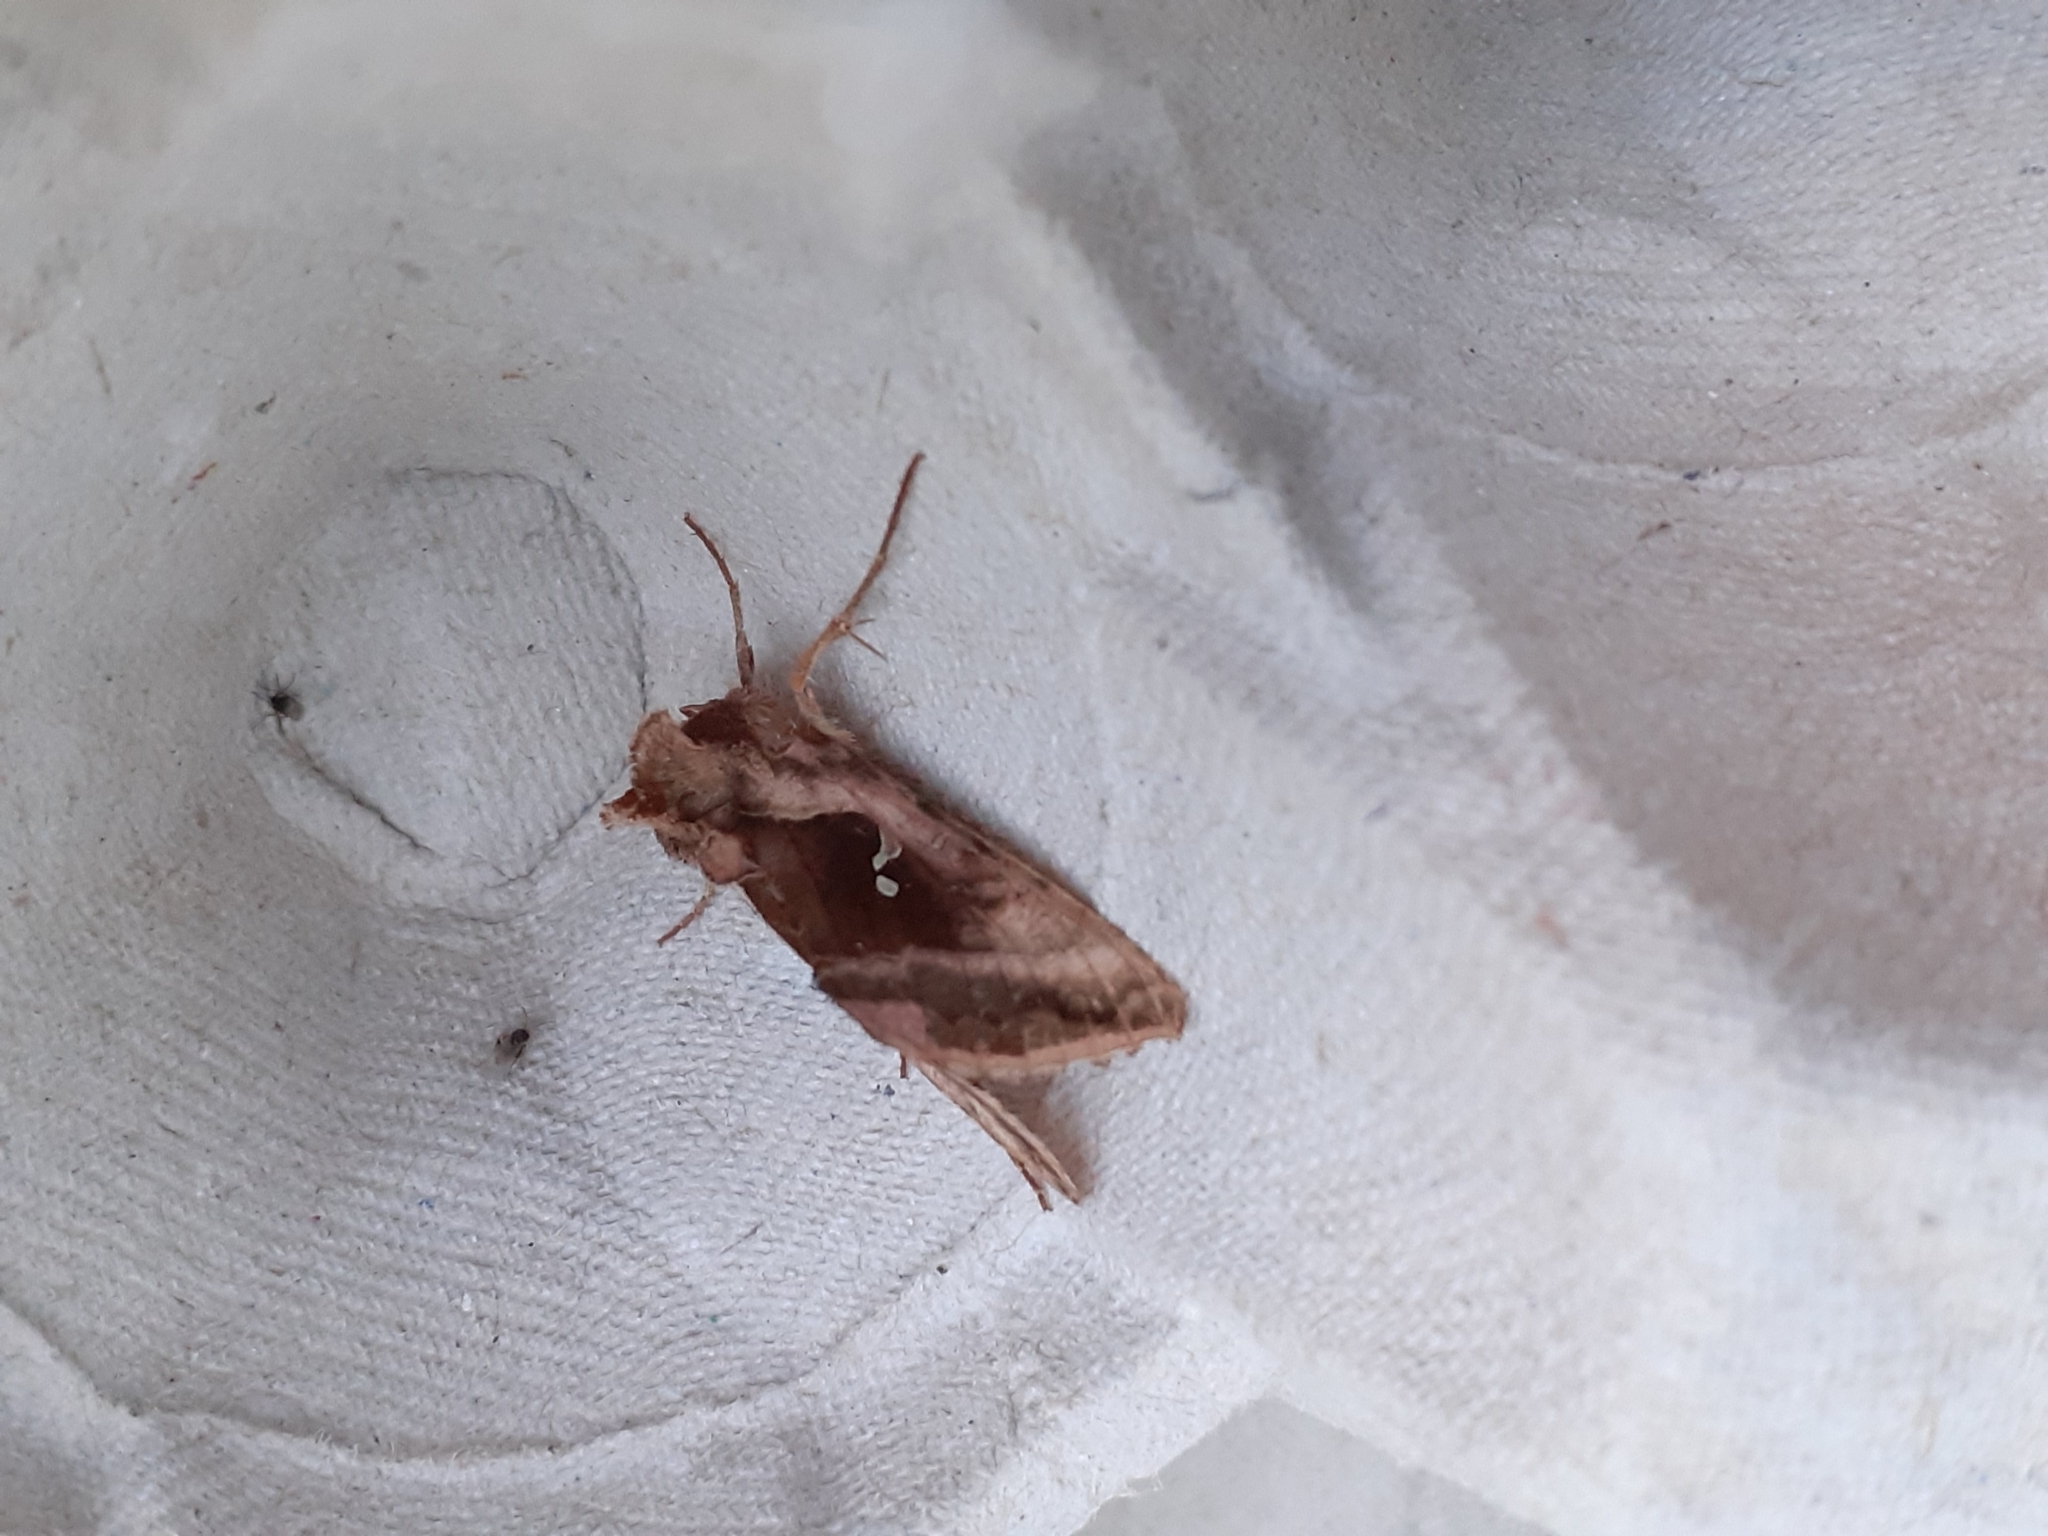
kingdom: Animalia
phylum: Arthropoda
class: Insecta
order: Lepidoptera
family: Noctuidae
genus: Autographa
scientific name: Autographa jota
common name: Plain golden y
